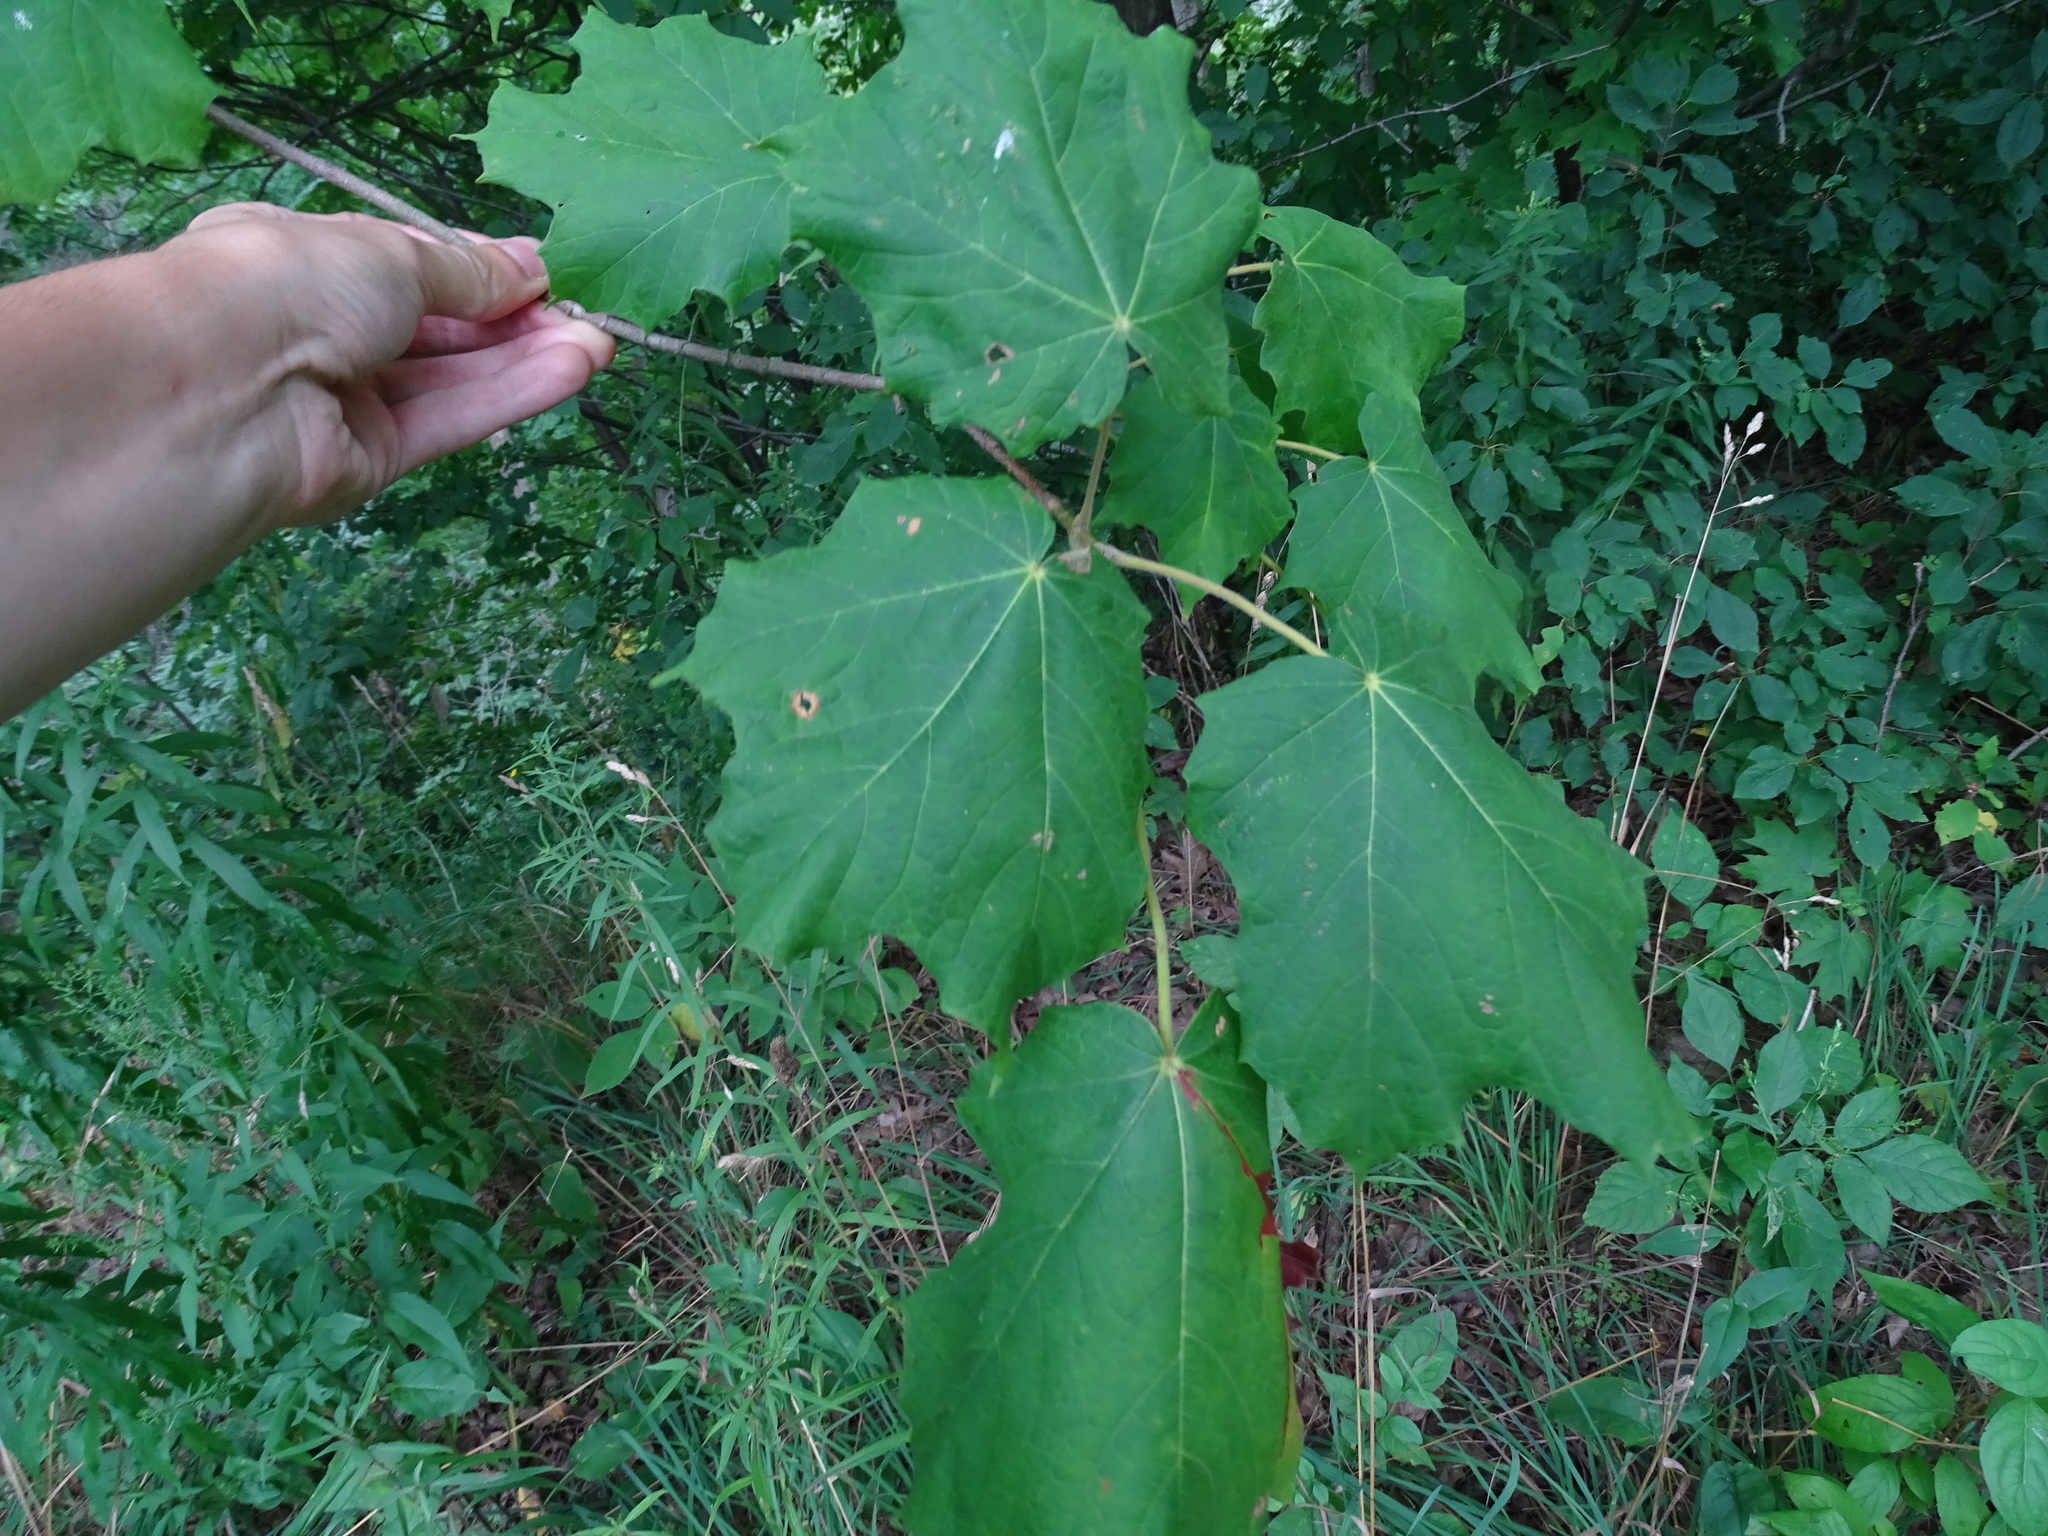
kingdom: Plantae
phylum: Tracheophyta
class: Magnoliopsida
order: Sapindales
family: Sapindaceae
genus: Acer
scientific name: Acer nigrum
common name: Black maple
